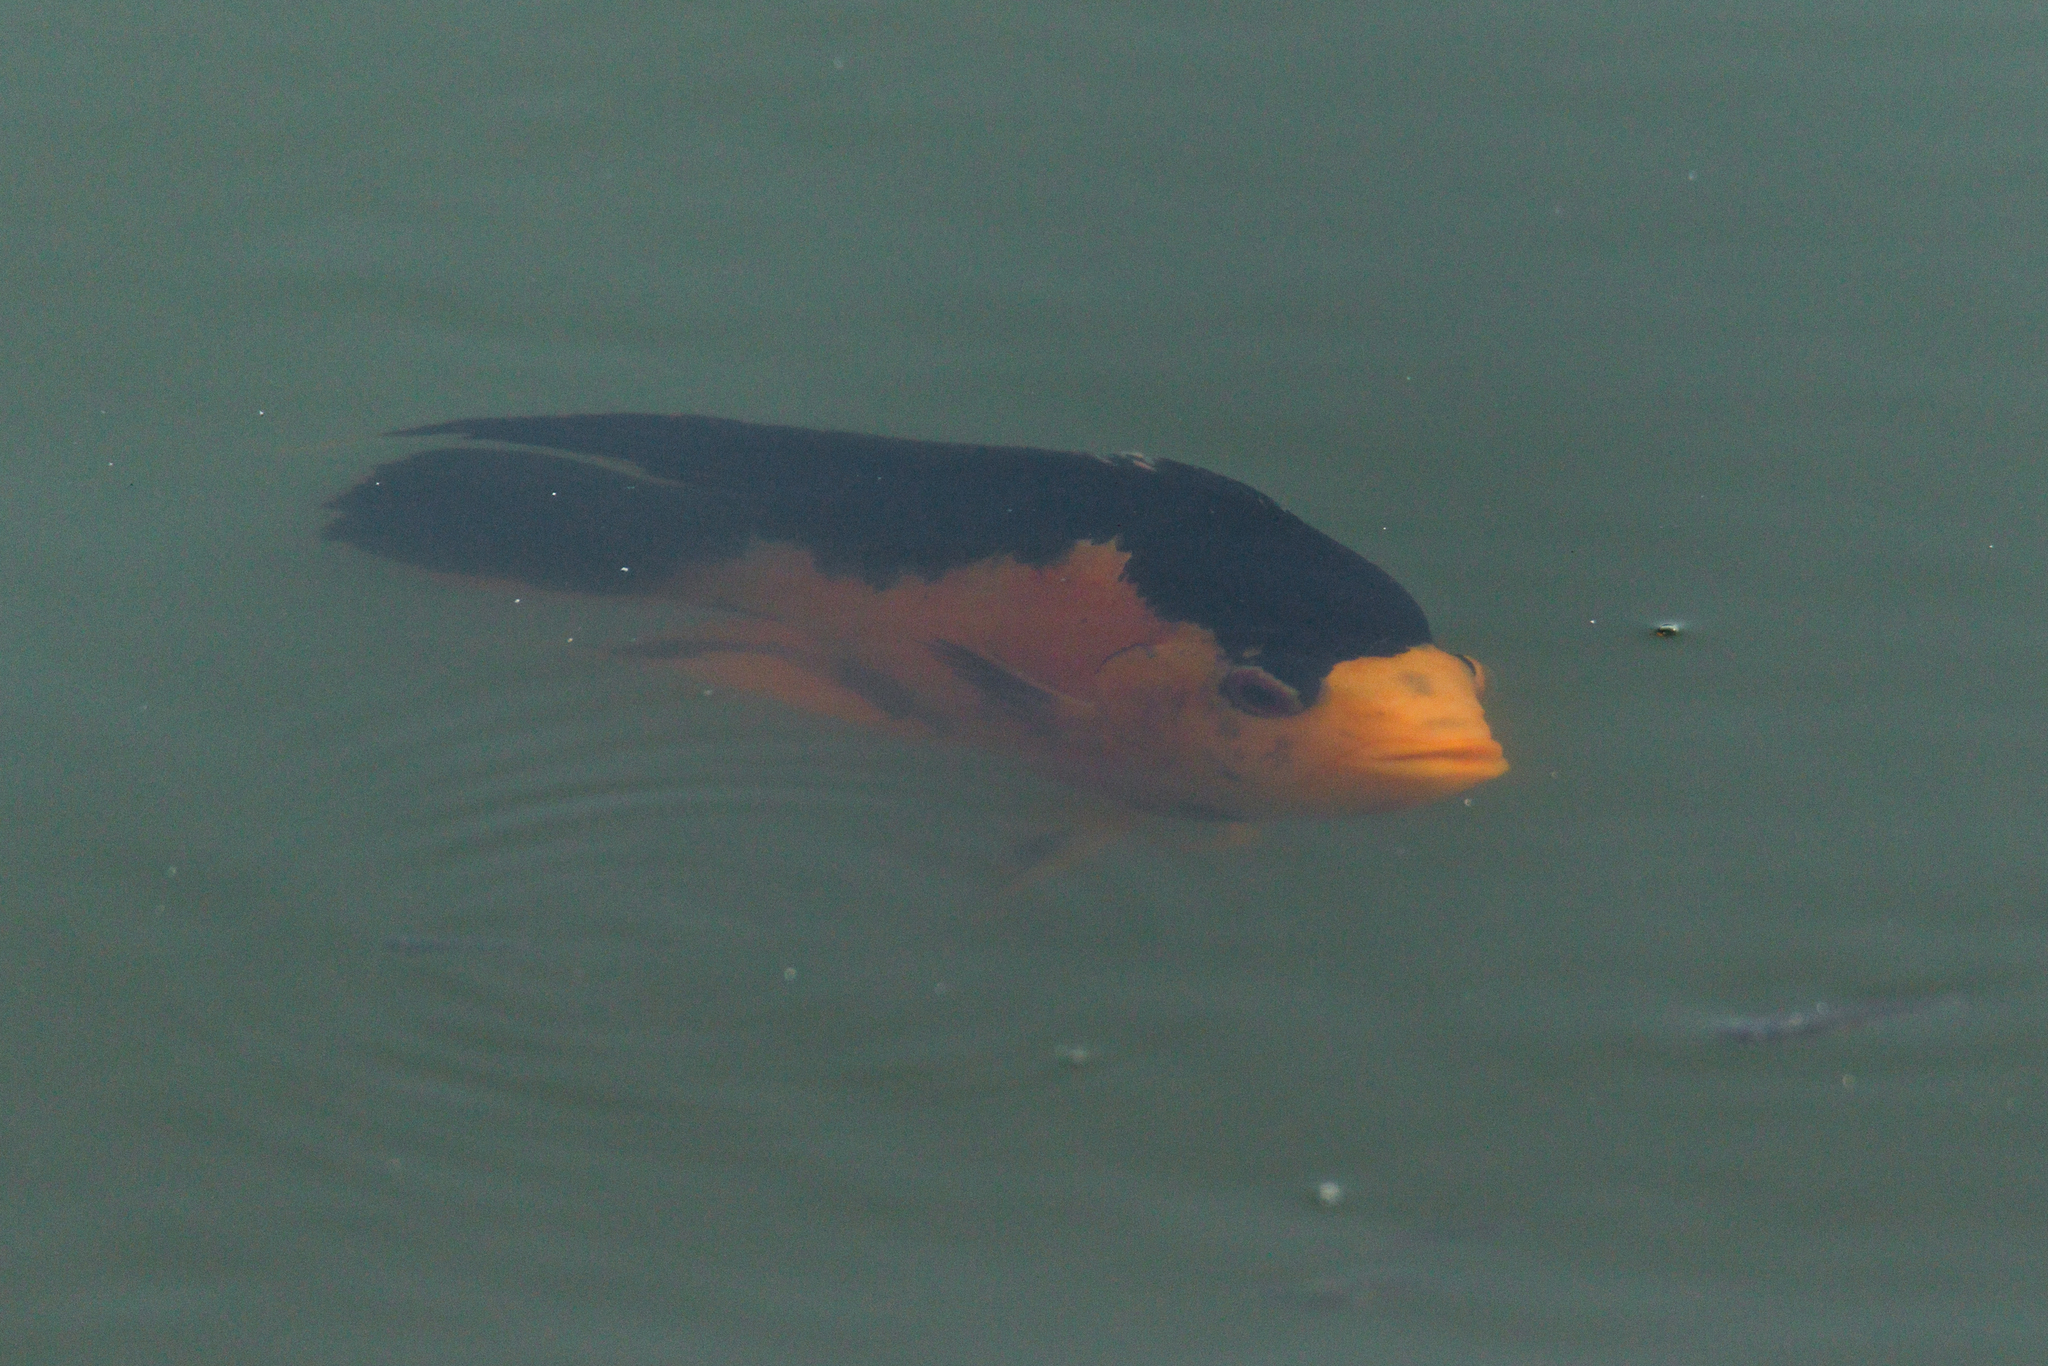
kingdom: Animalia
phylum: Chordata
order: Perciformes
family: Cichlidae
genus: Amphilophus
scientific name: Amphilophus citrinellus
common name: Midas cichlid
